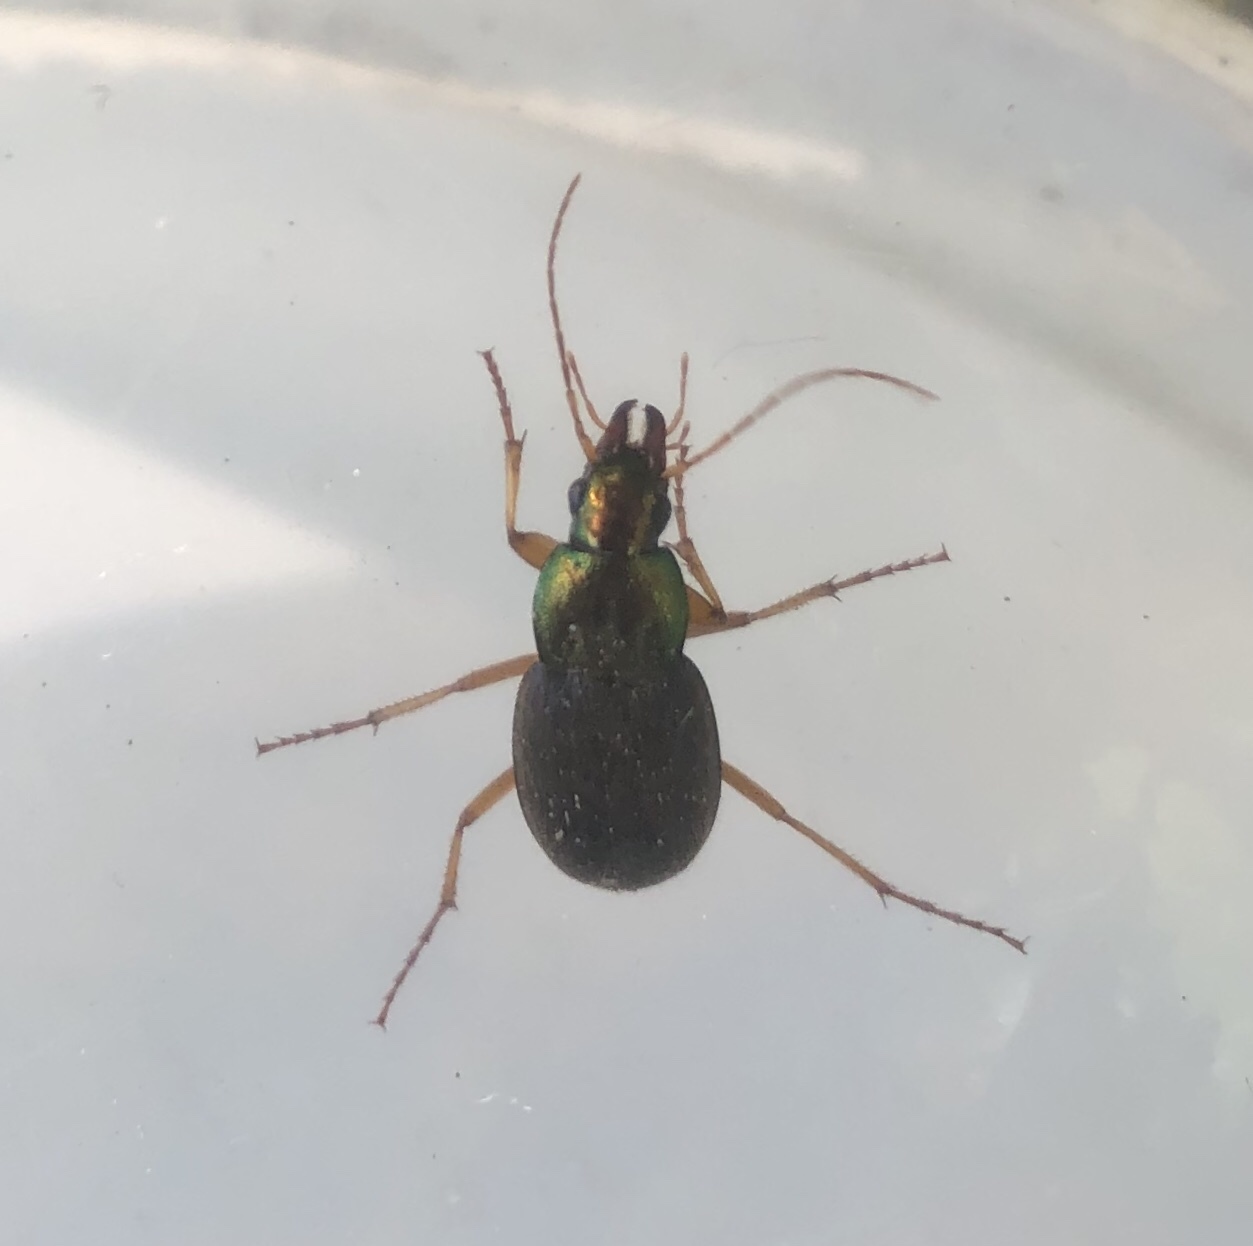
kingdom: Animalia
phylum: Arthropoda
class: Insecta
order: Coleoptera
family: Carabidae
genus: Chlaenius
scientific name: Chlaenius emarginatus
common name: Emarginate chlaenius
